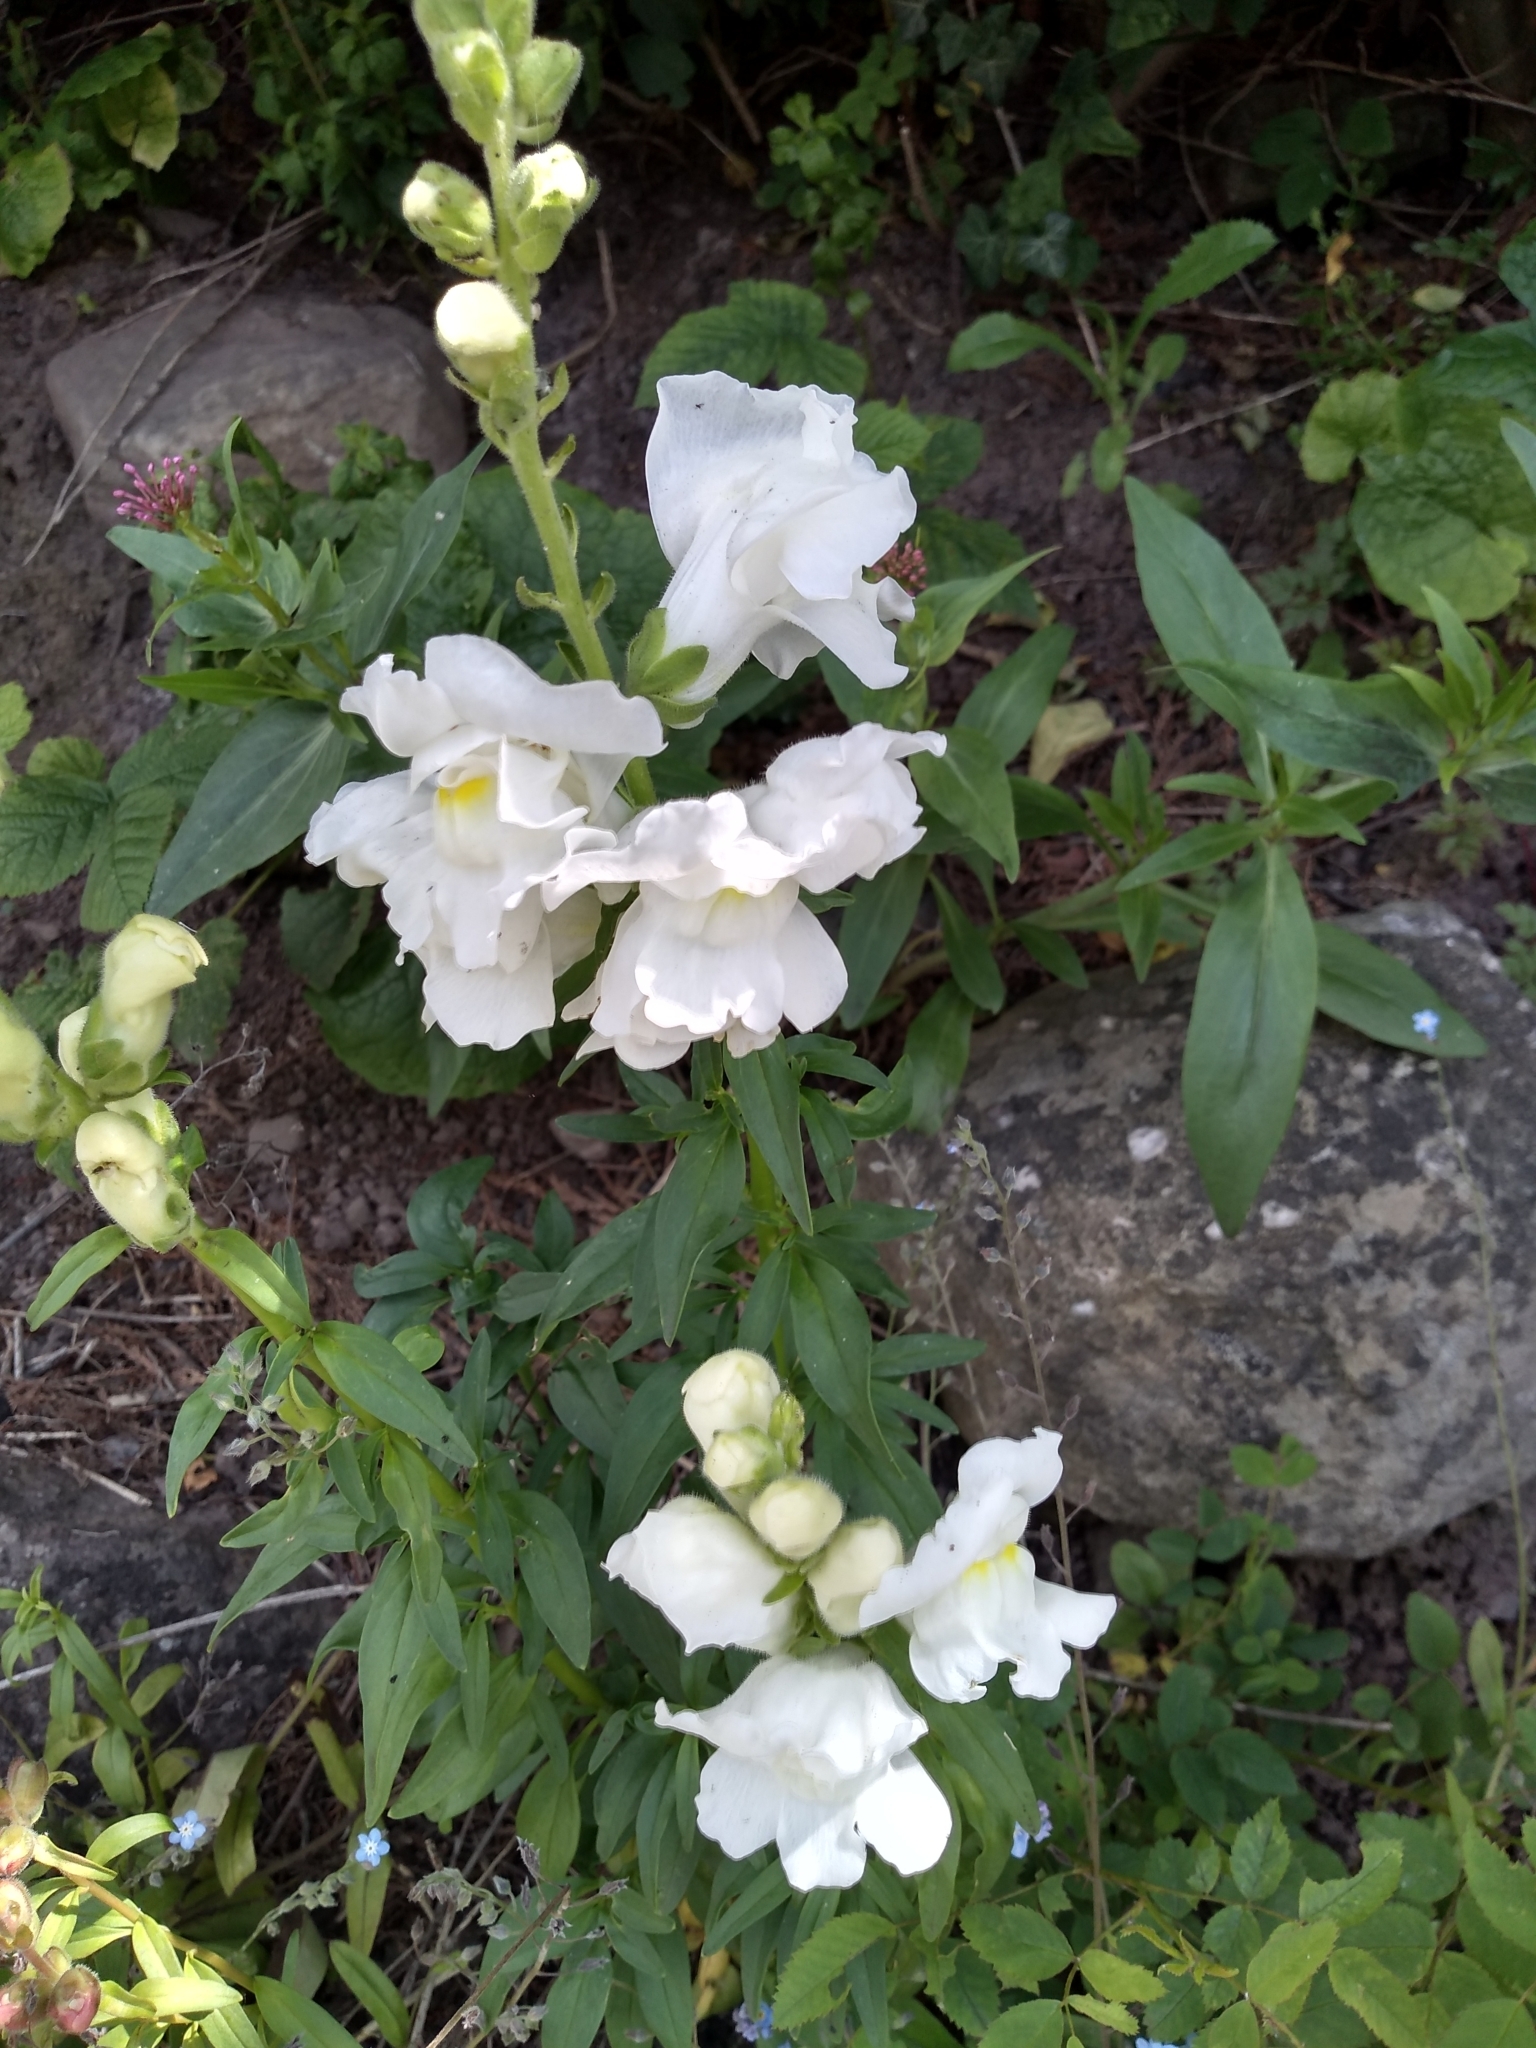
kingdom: Plantae
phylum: Tracheophyta
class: Magnoliopsida
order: Lamiales
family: Plantaginaceae
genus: Antirrhinum
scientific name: Antirrhinum majus
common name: Snapdragon
